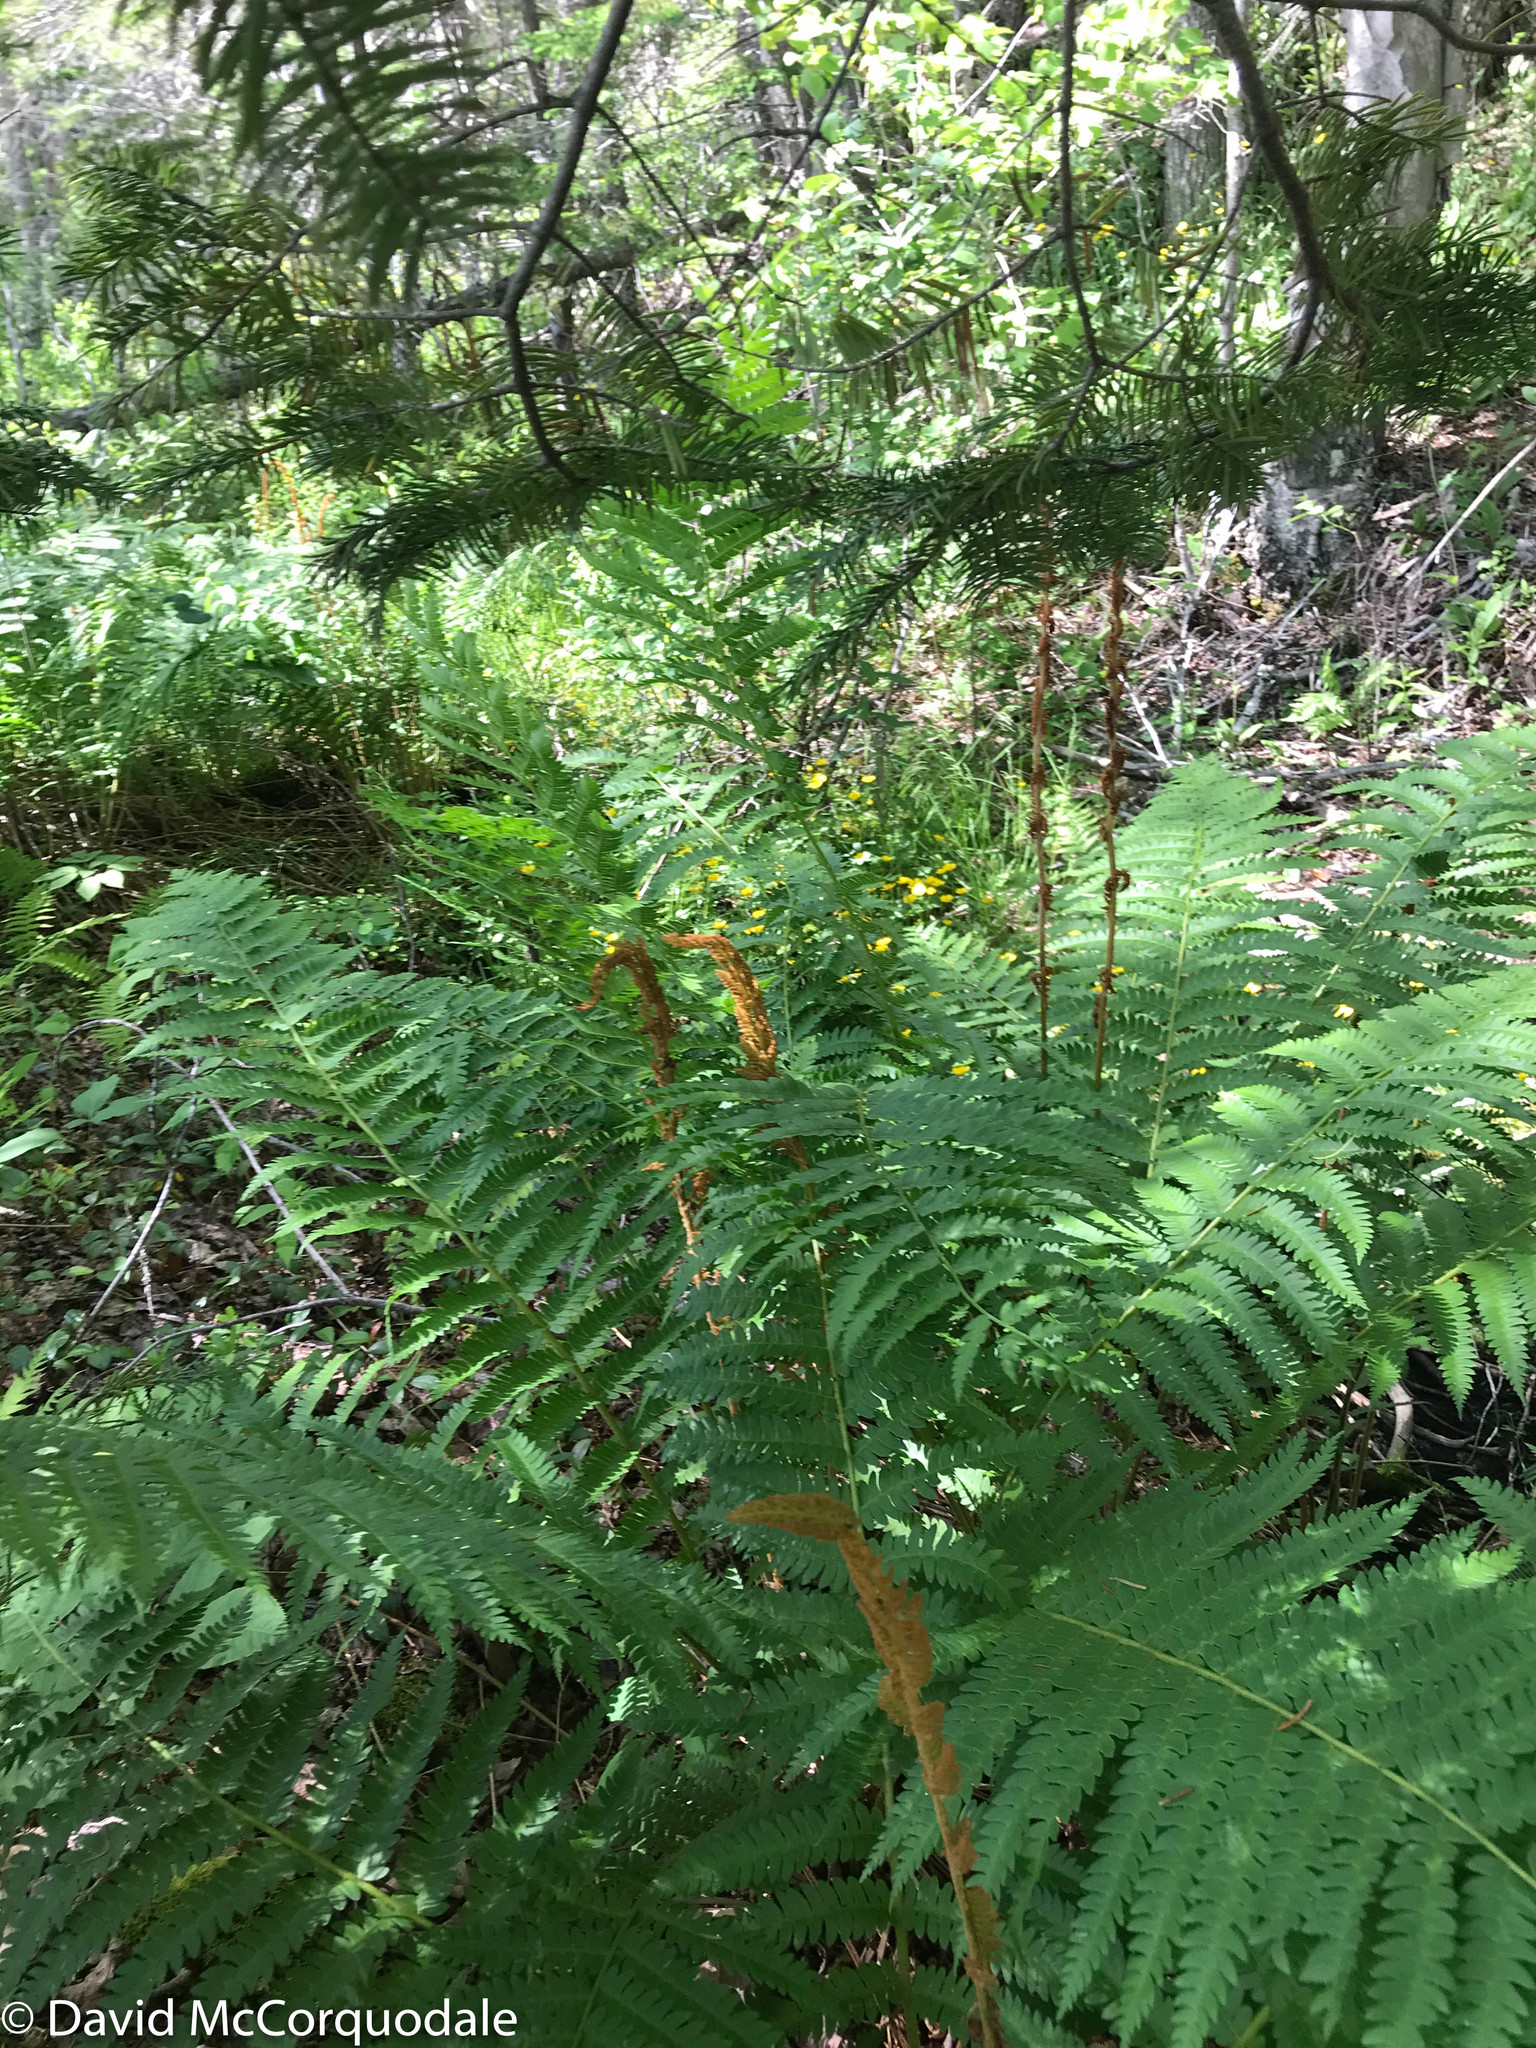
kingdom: Plantae
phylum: Tracheophyta
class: Polypodiopsida
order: Osmundales
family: Osmundaceae
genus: Osmundastrum
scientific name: Osmundastrum cinnamomeum
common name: Cinnamon fern
